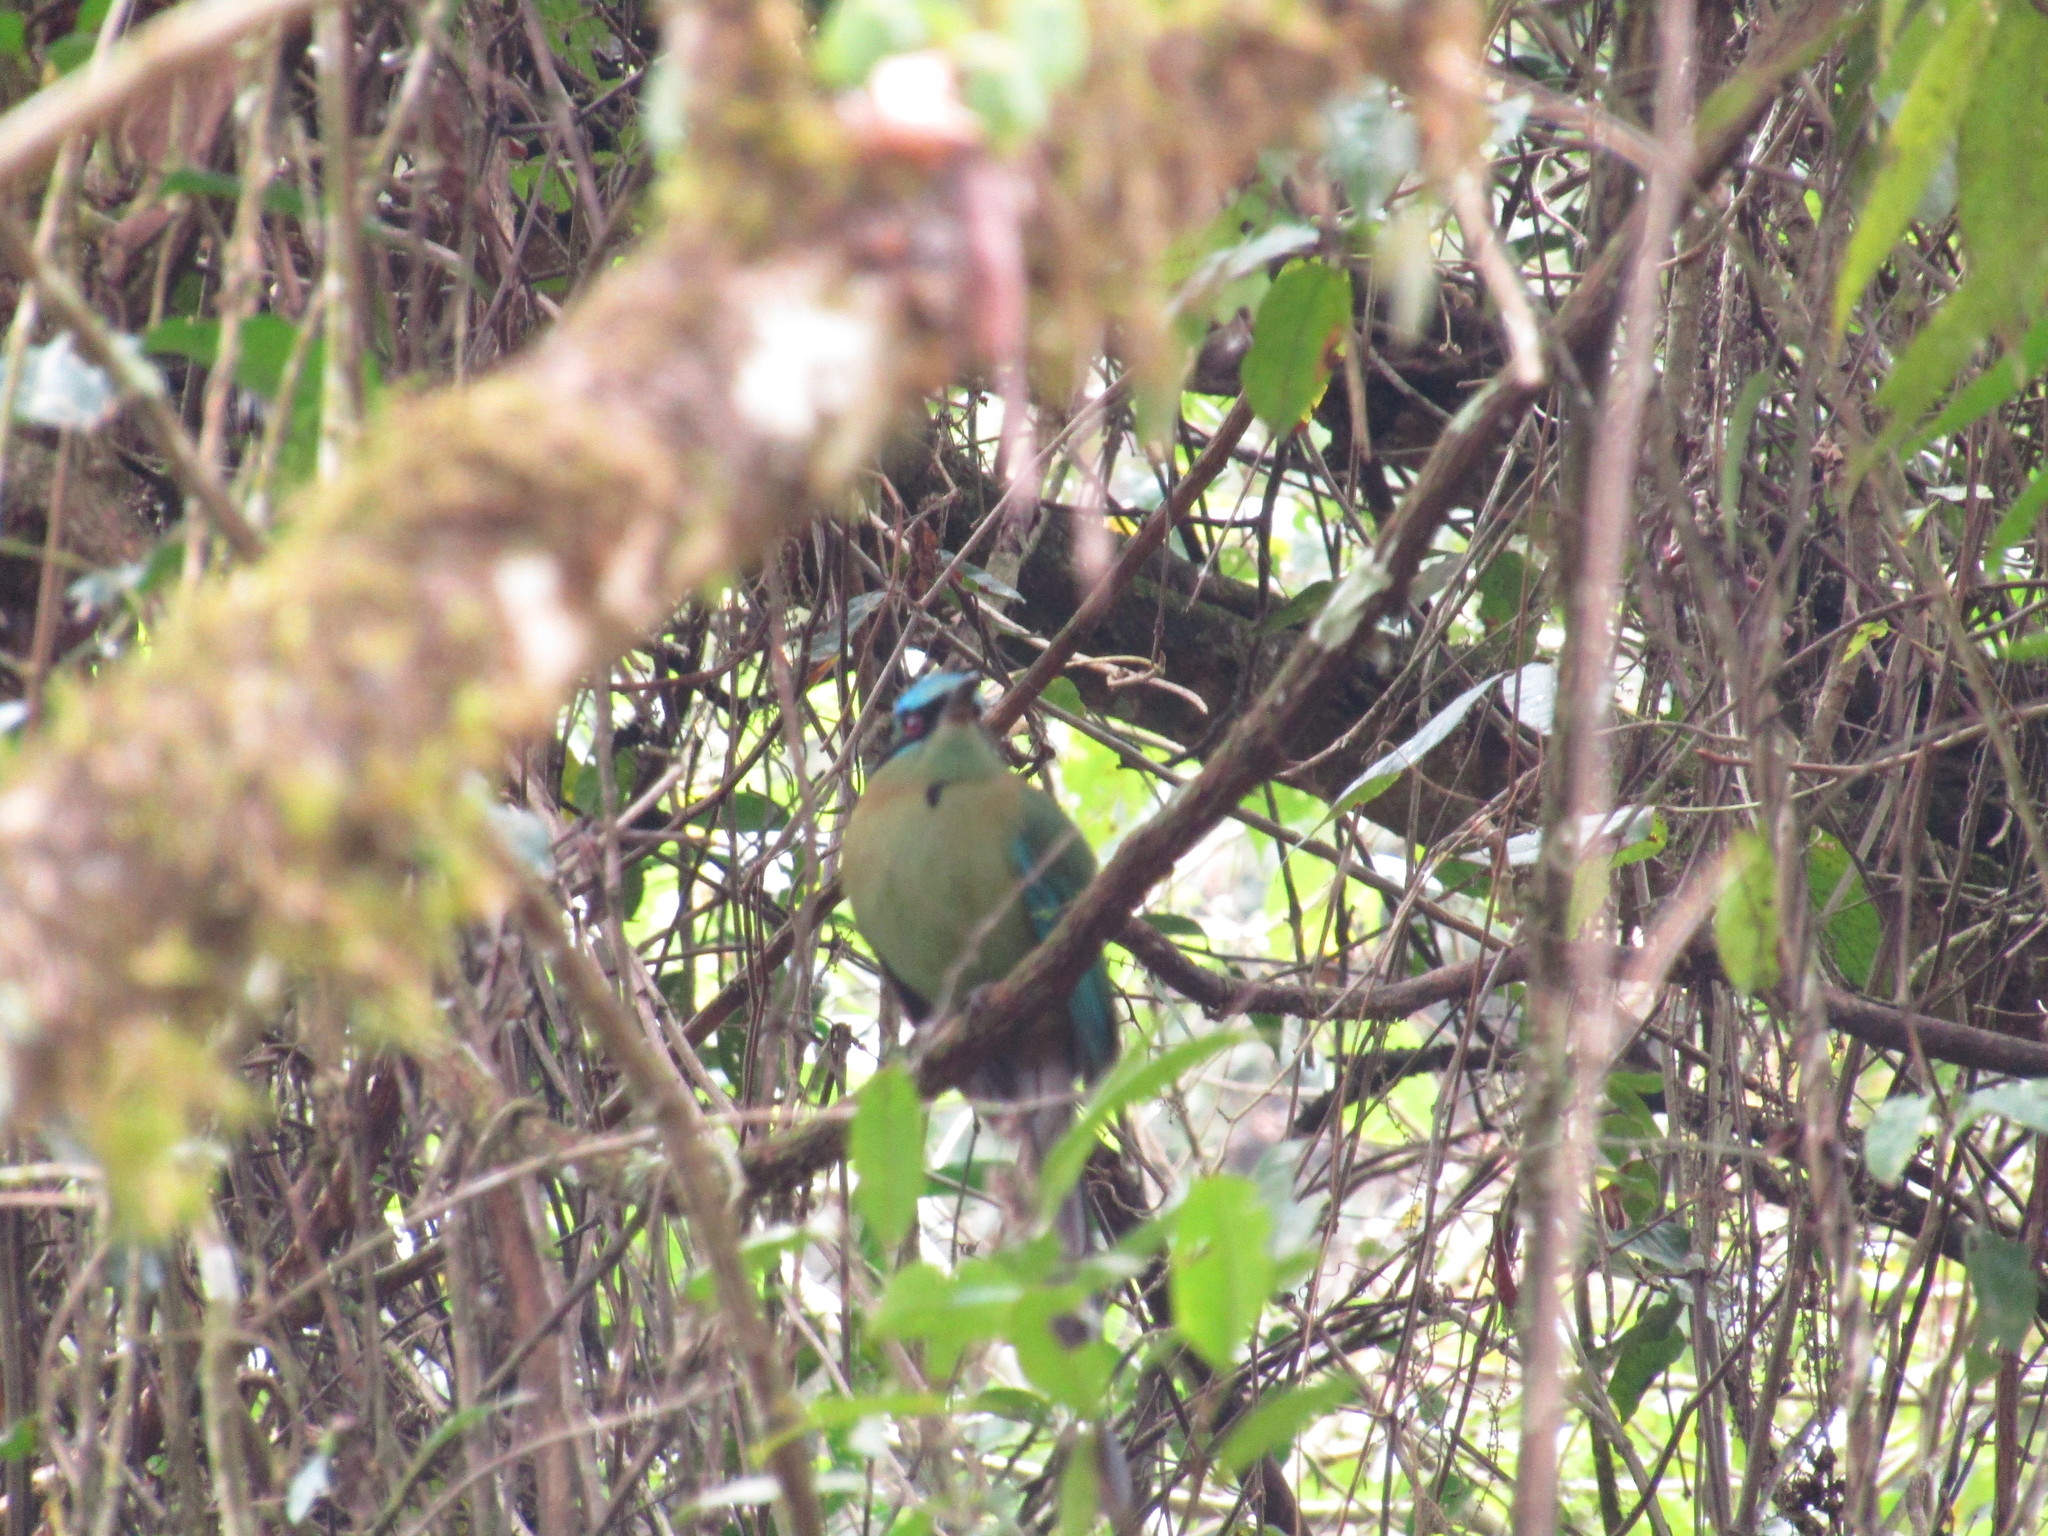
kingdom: Animalia
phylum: Chordata
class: Aves
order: Coraciiformes
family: Momotidae
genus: Momotus
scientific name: Momotus coeruliceps
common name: Blue-capped motmot
